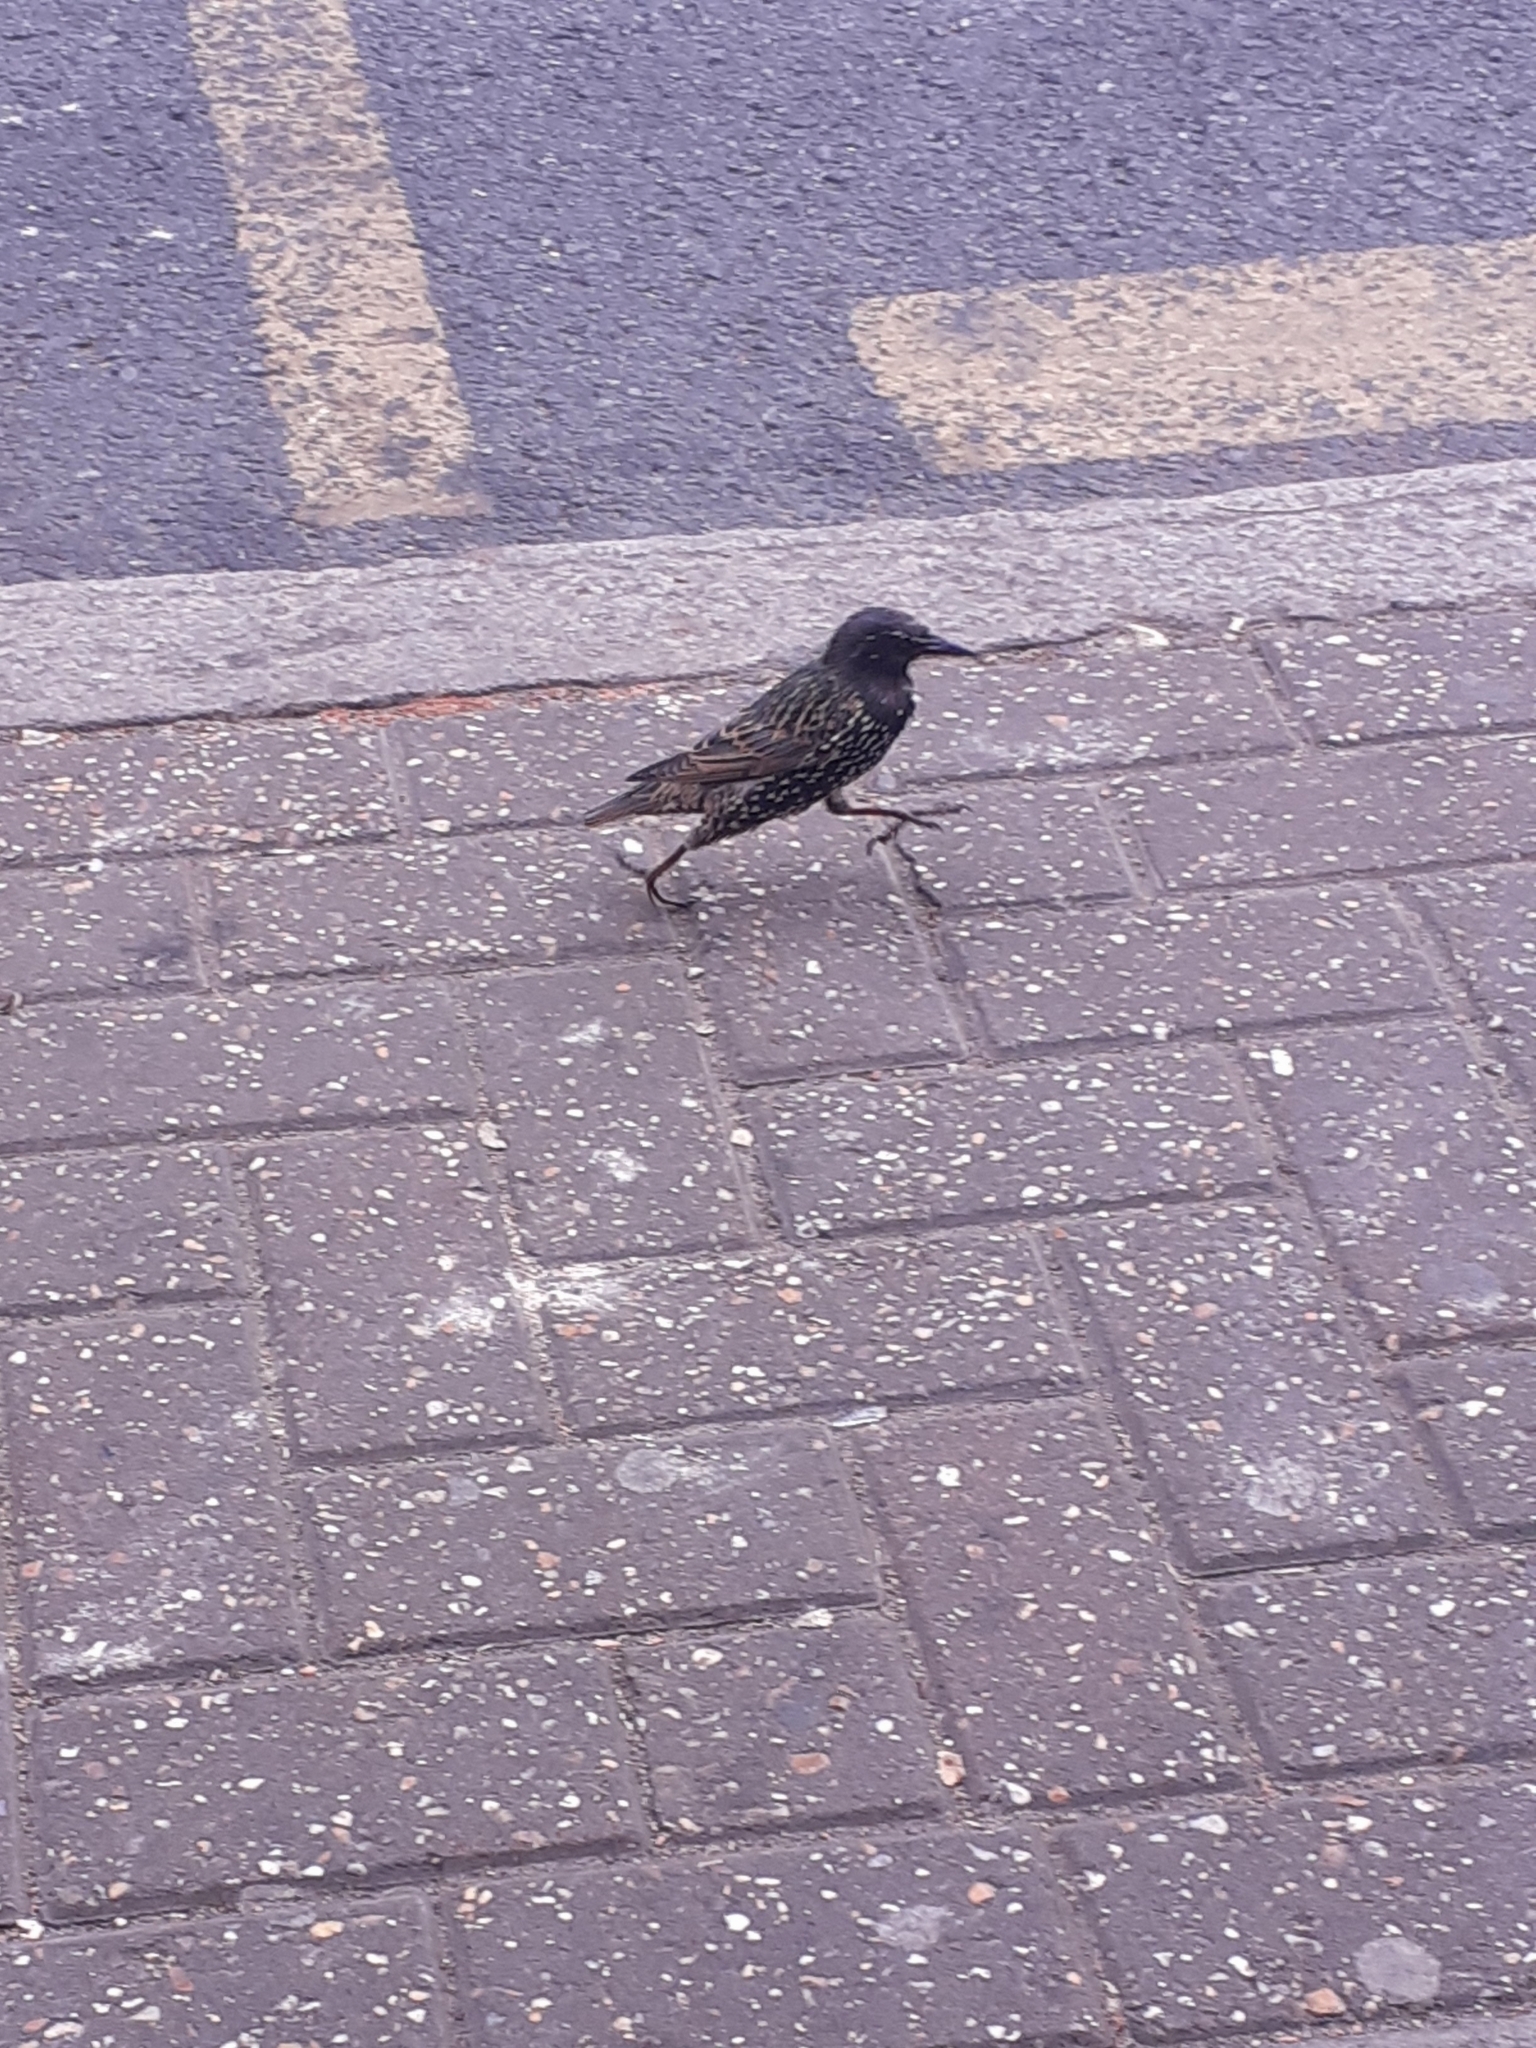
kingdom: Animalia
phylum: Chordata
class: Aves
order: Passeriformes
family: Sturnidae
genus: Sturnus
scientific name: Sturnus vulgaris
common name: Common starling
